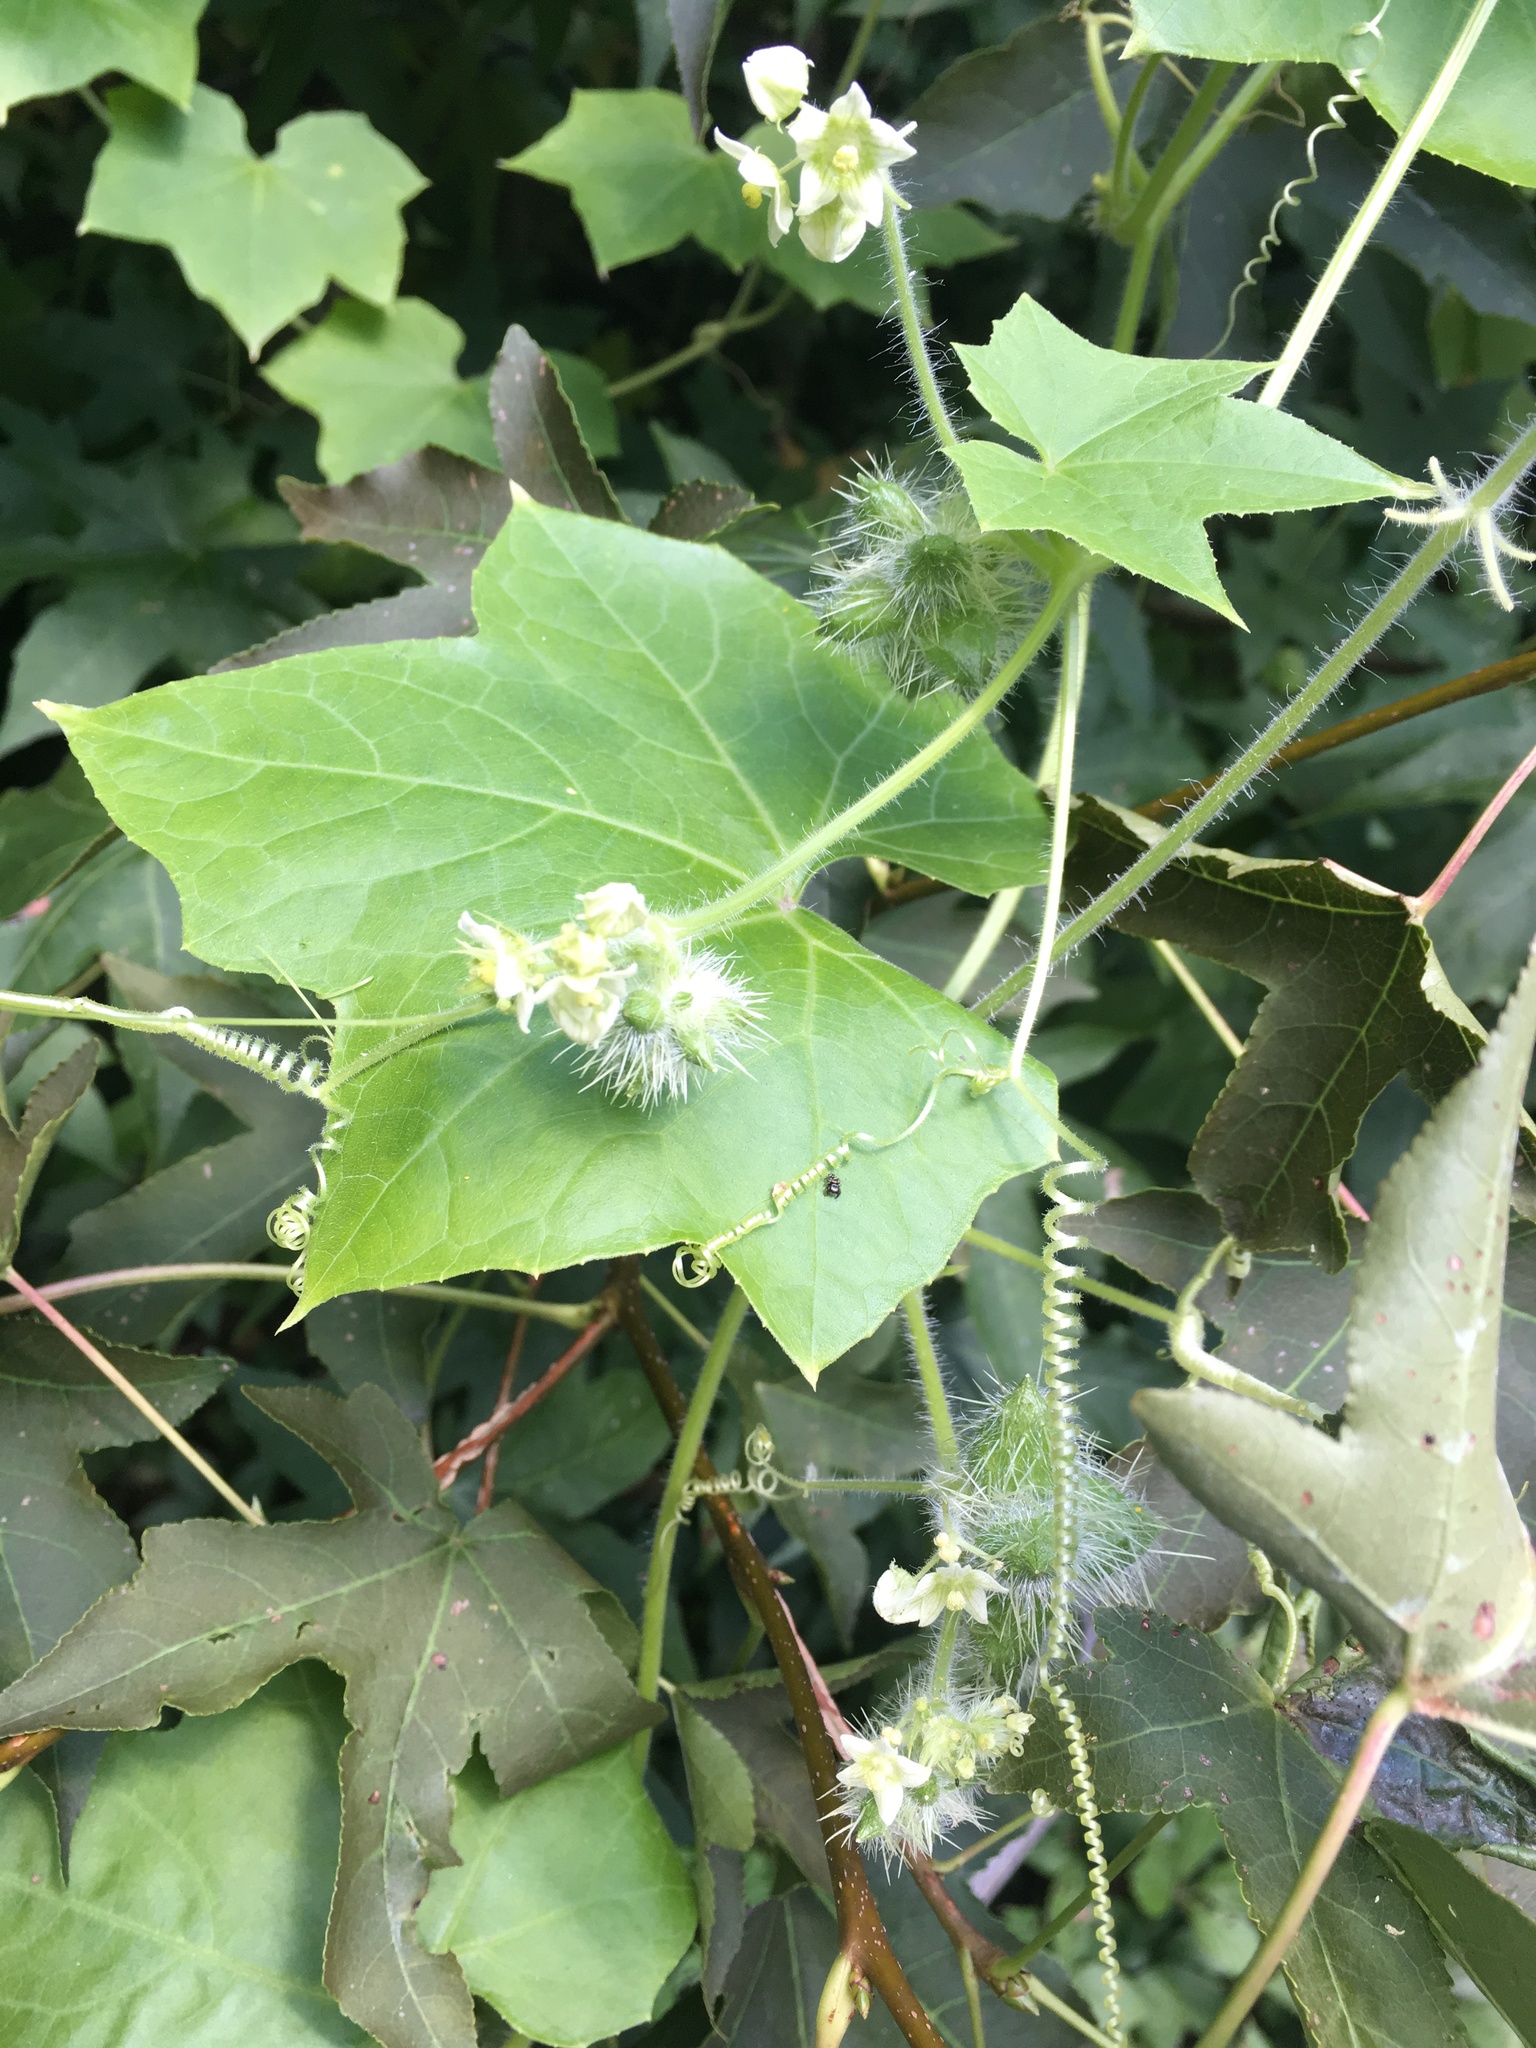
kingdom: Plantae
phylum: Tracheophyta
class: Magnoliopsida
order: Cucurbitales
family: Cucurbitaceae
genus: Sicyos
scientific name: Sicyos angulatus
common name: Angled burr cucumber
